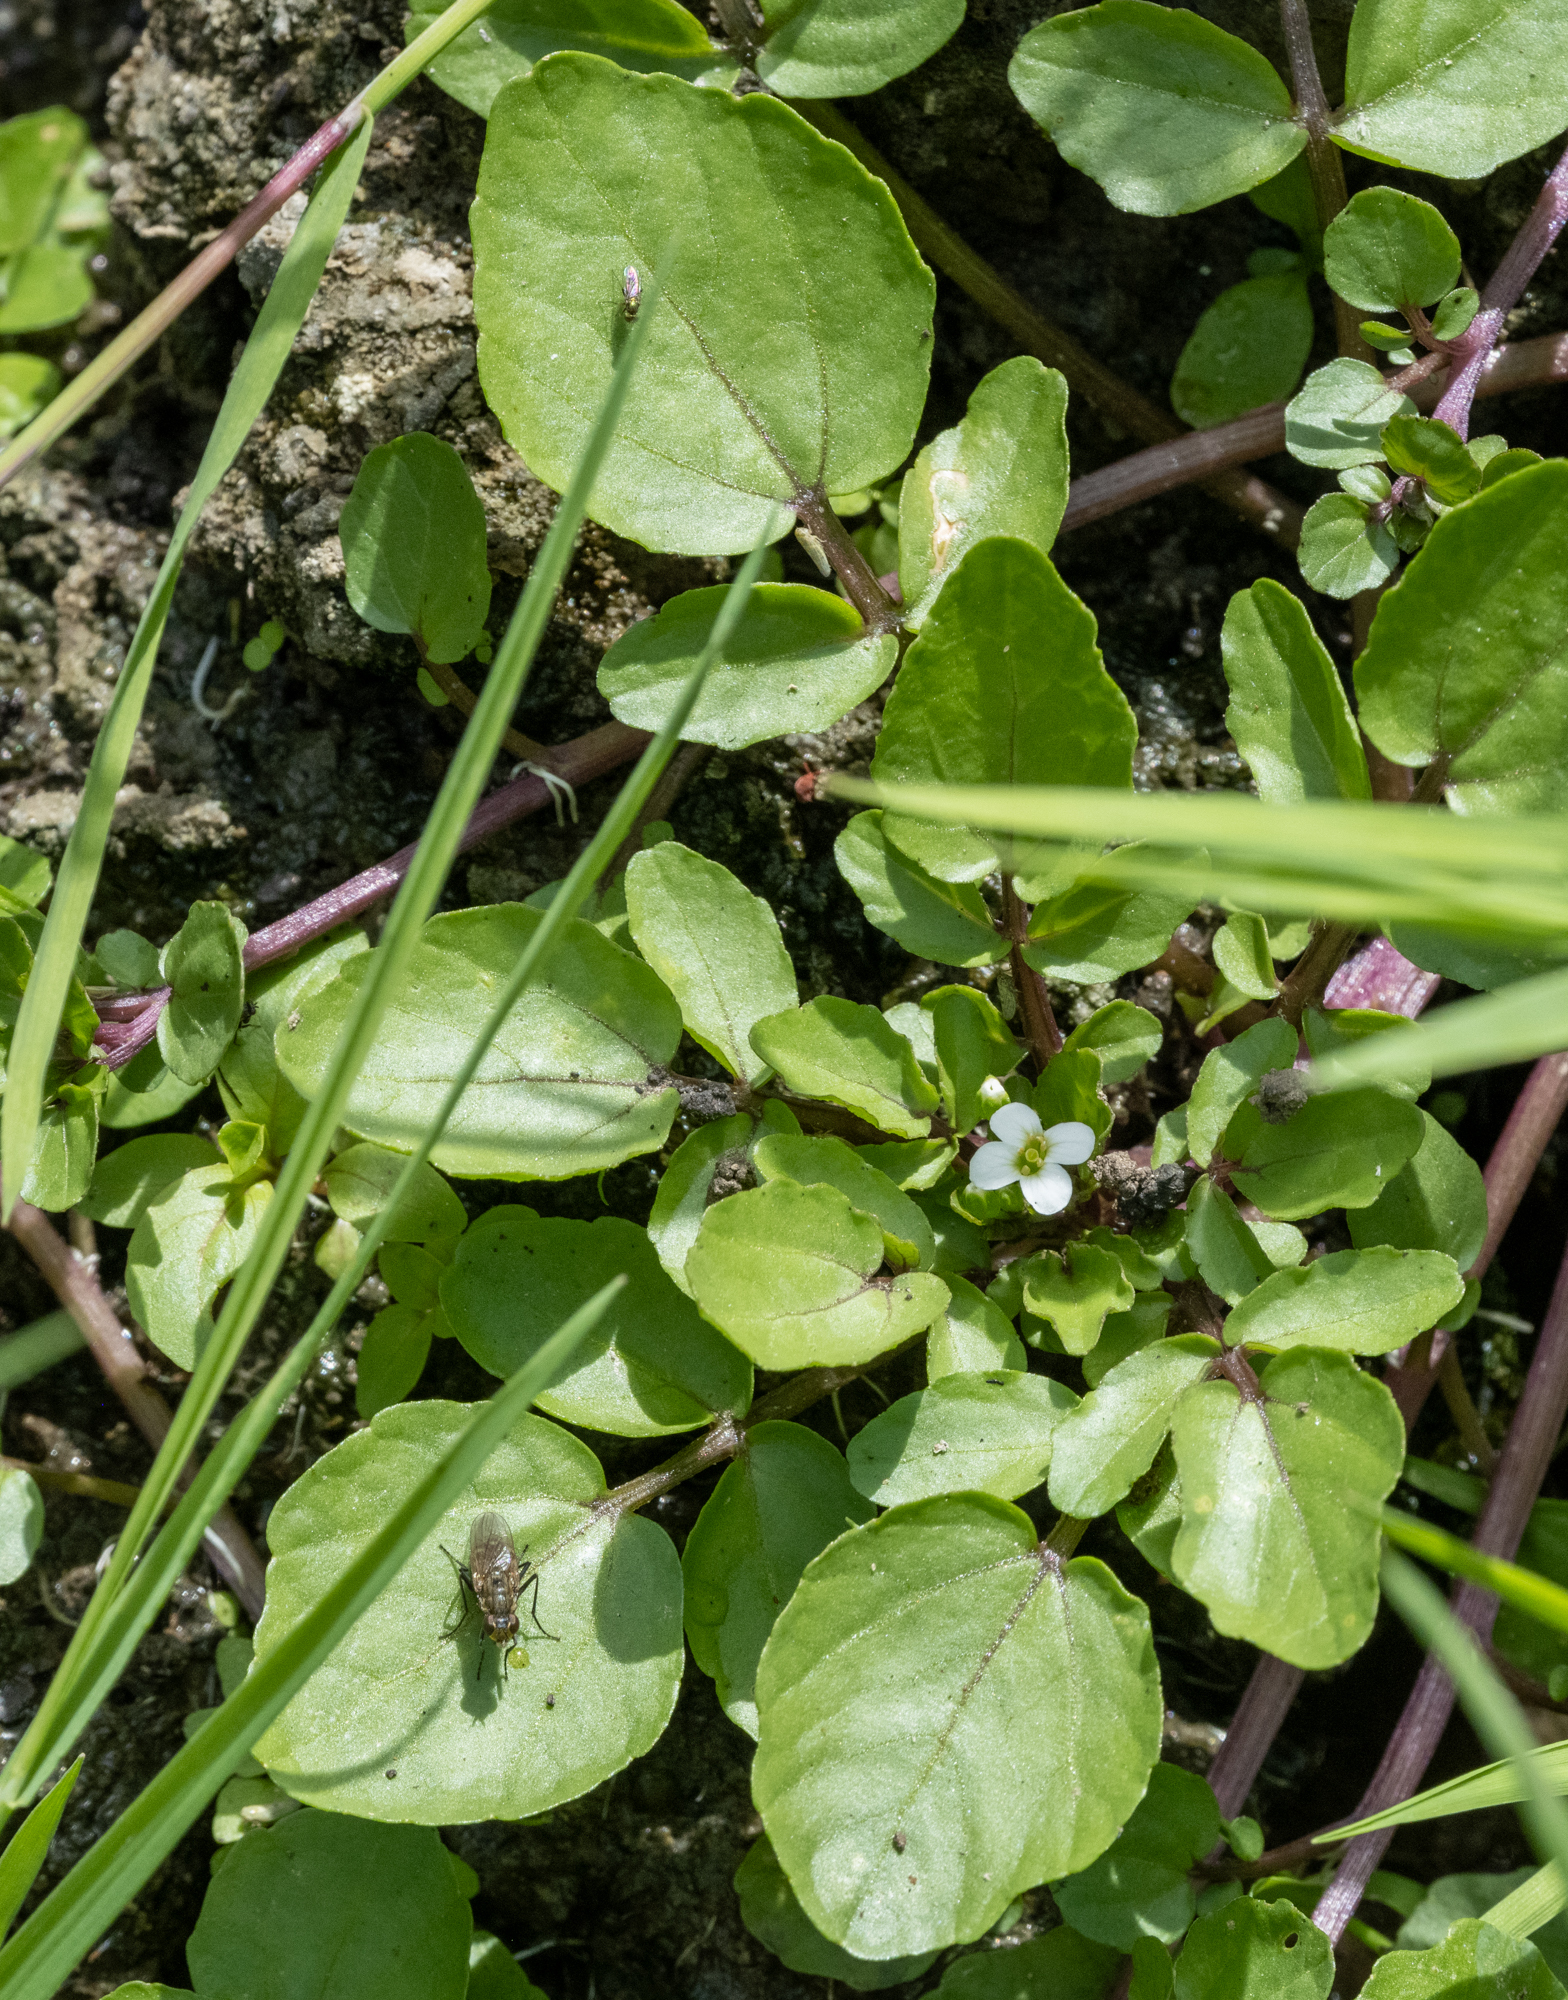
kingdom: Plantae
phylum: Tracheophyta
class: Magnoliopsida
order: Brassicales
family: Brassicaceae
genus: Nasturtium
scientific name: Nasturtium officinale
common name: Watercress
